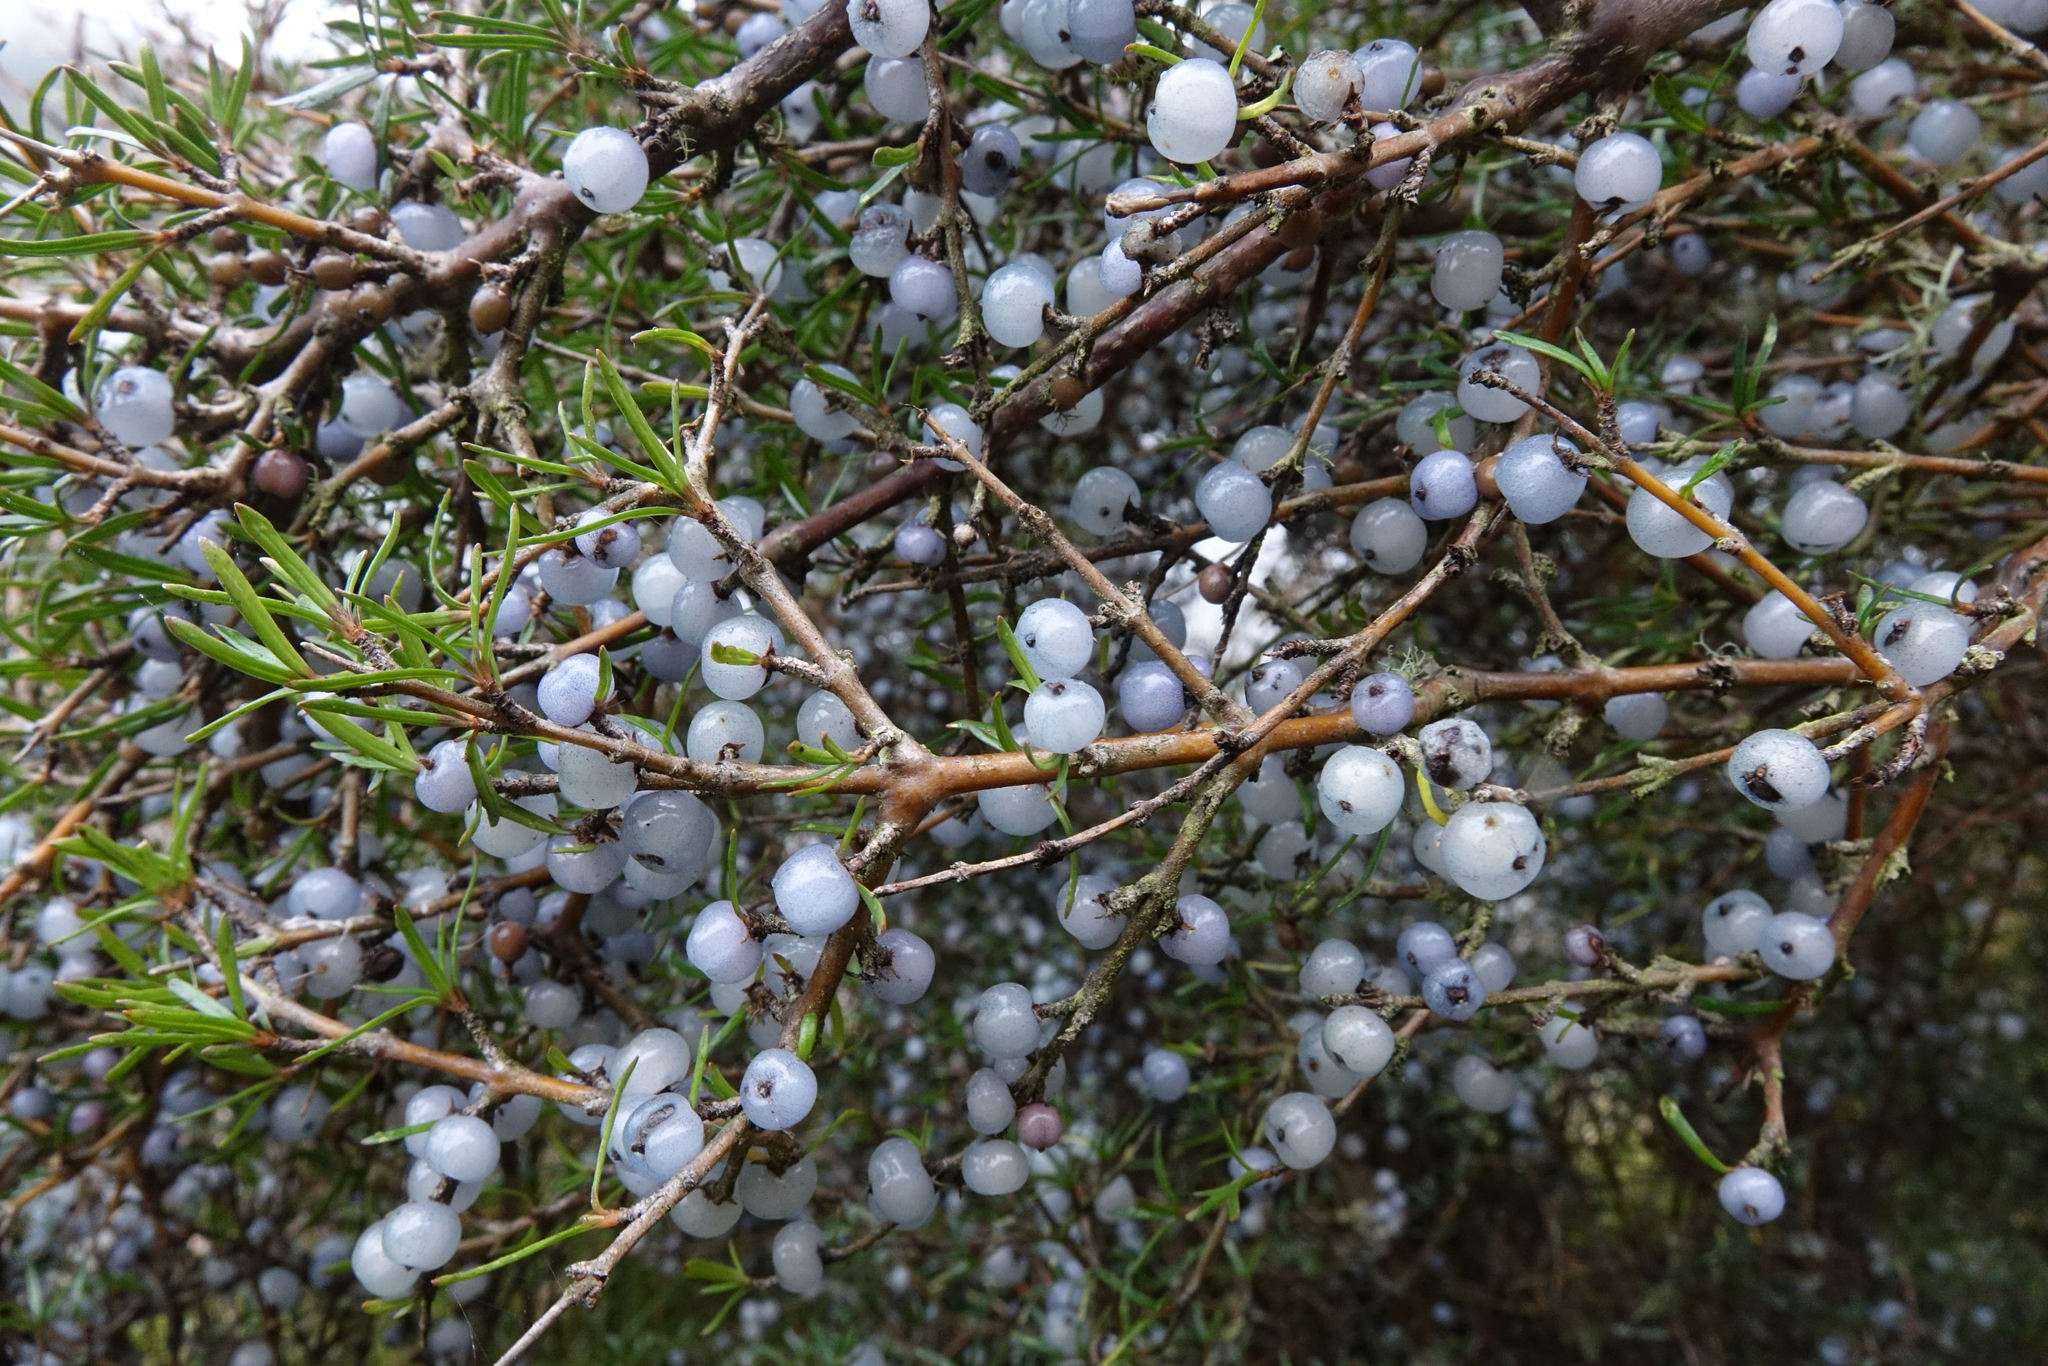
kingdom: Plantae
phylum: Tracheophyta
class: Magnoliopsida
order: Gentianales
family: Rubiaceae
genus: Coprosma
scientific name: Coprosma rugosa
